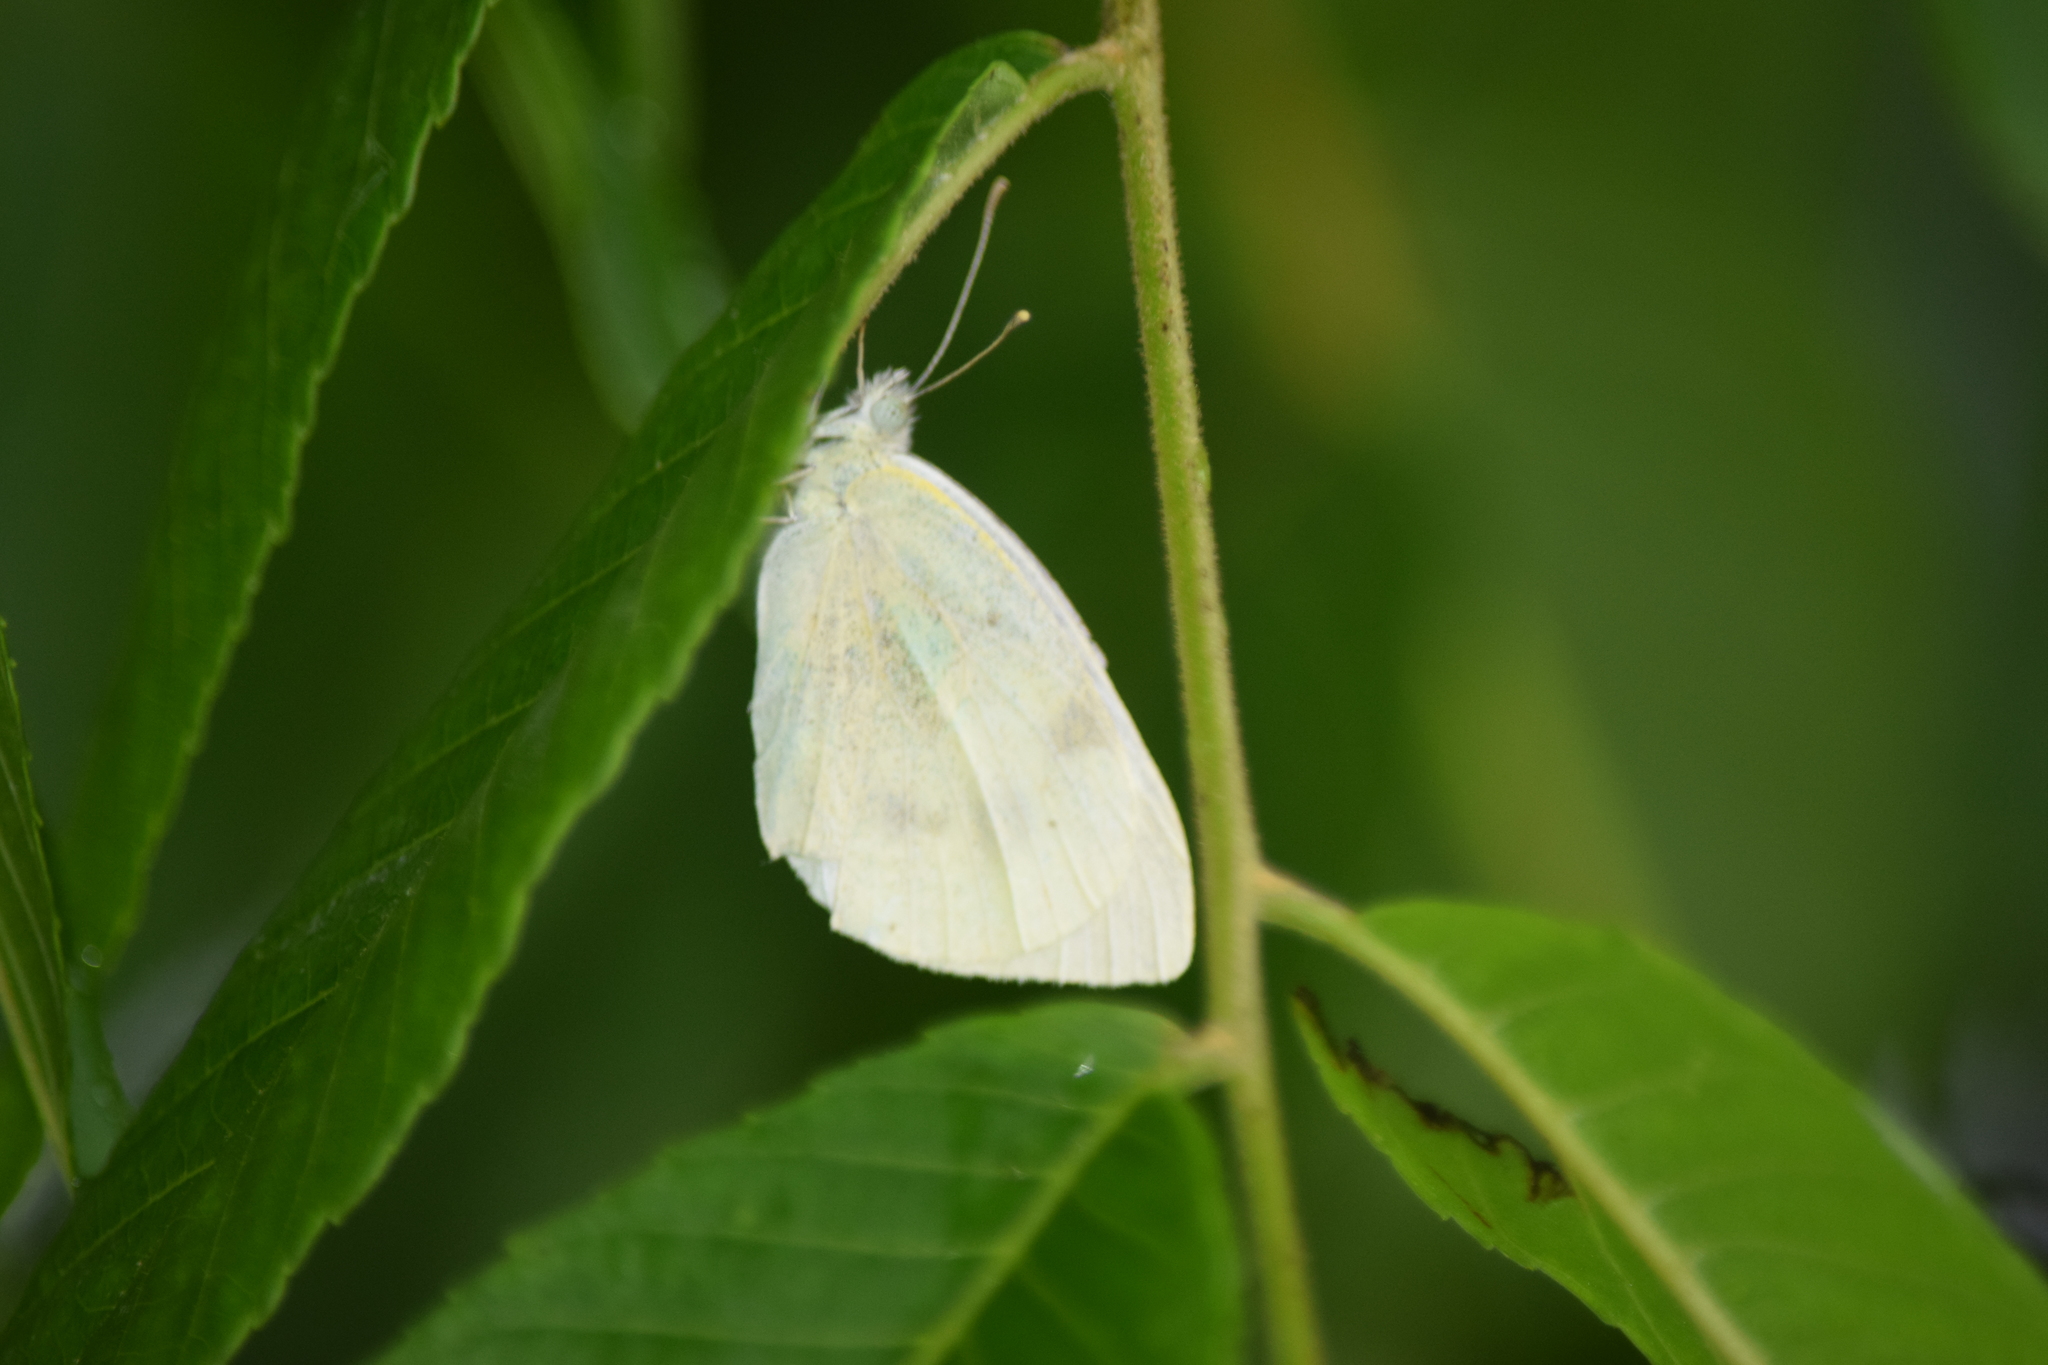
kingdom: Animalia
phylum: Arthropoda
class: Insecta
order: Lepidoptera
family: Pieridae
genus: Pieris
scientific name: Pieris rapae
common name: Small white
